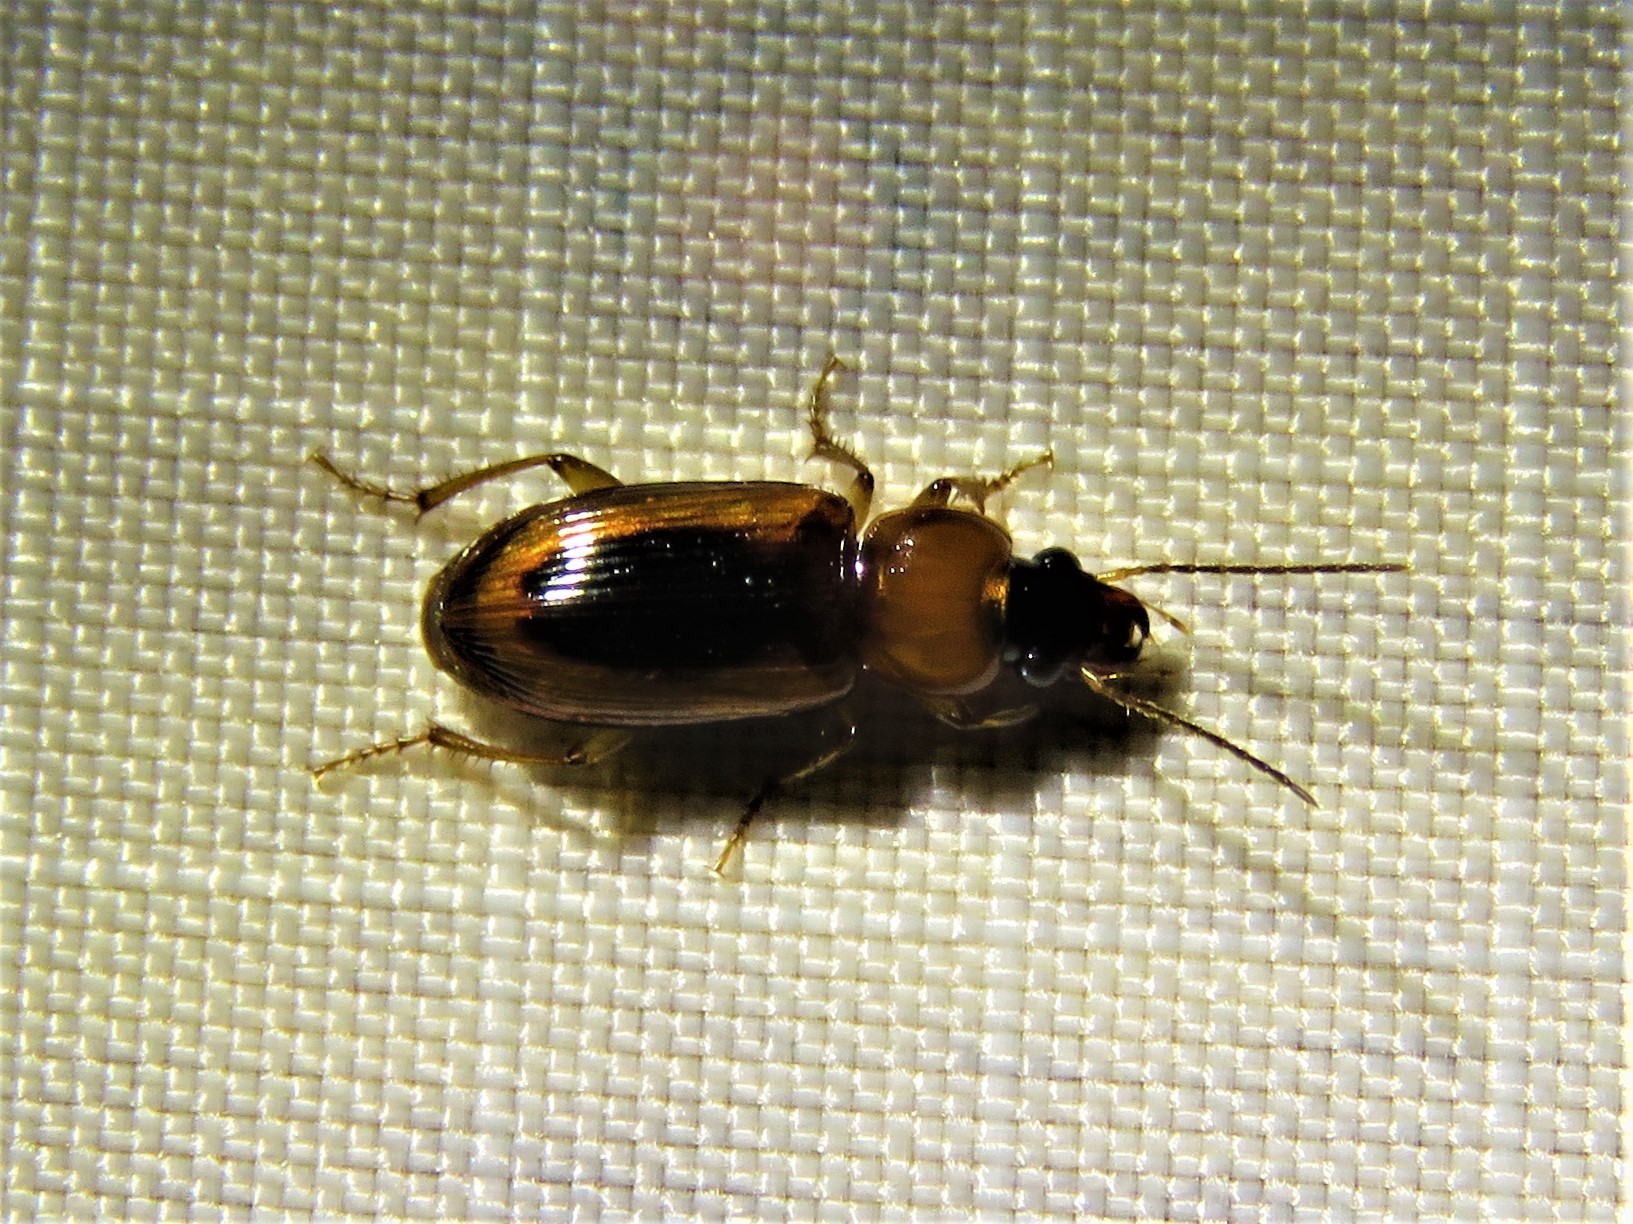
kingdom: Animalia
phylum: Arthropoda
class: Insecta
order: Coleoptera
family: Carabidae
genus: Stenolophus
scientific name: Stenolophus dissimilis
